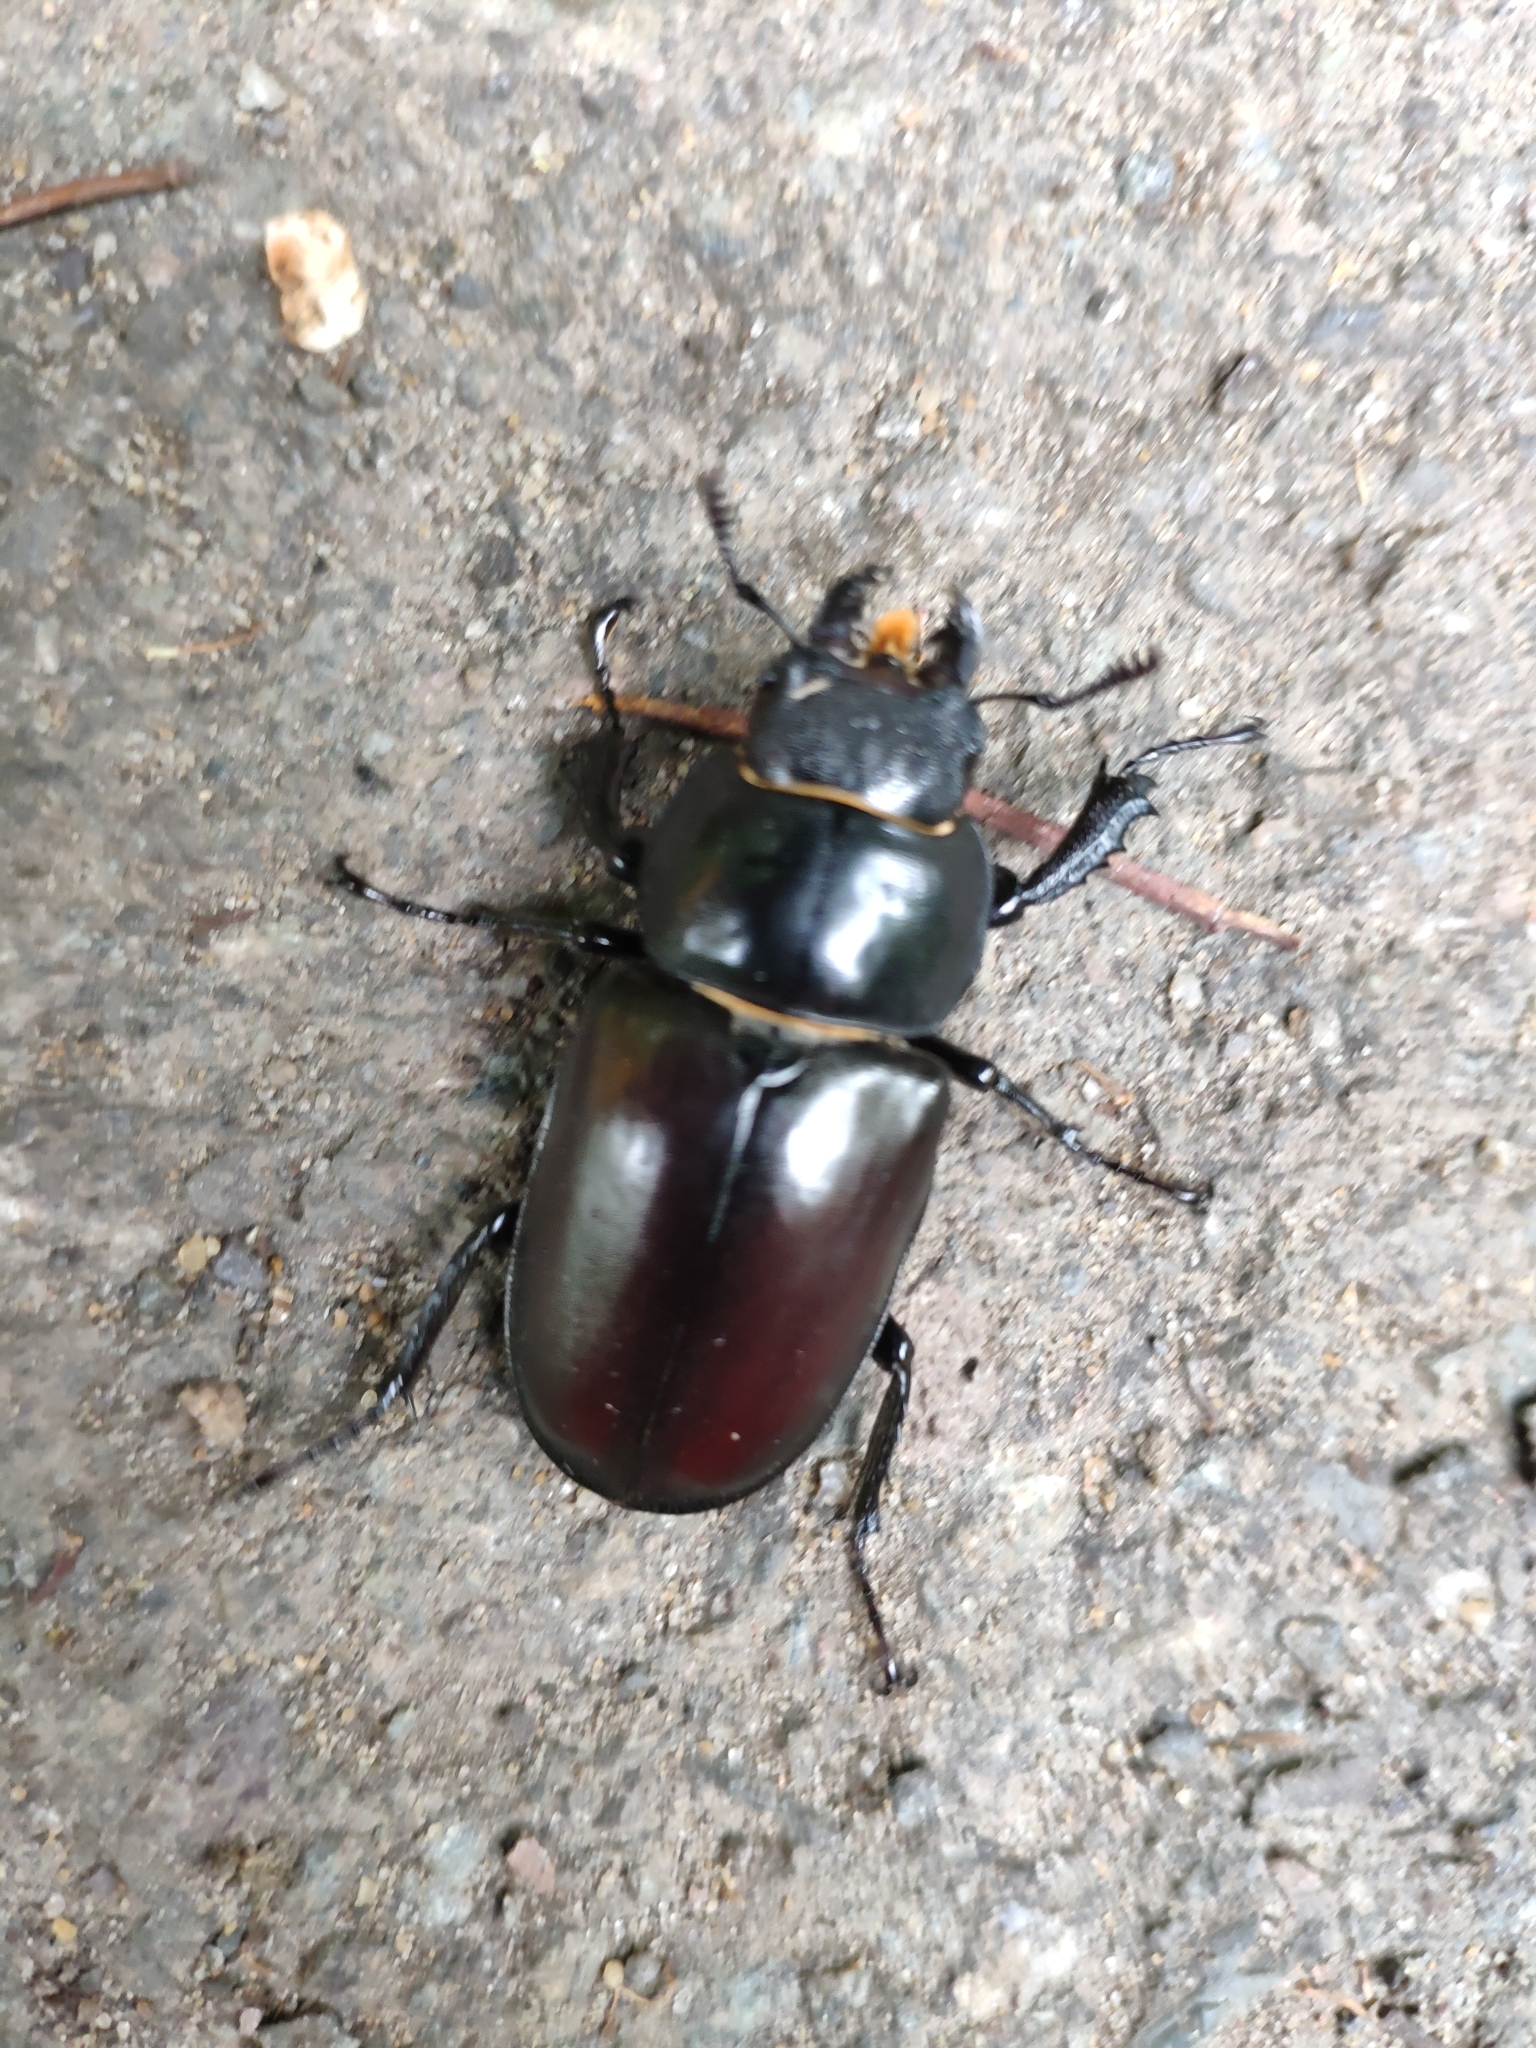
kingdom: Animalia
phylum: Arthropoda
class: Insecta
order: Coleoptera
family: Lucanidae
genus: Lucanus
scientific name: Lucanus cervus
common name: Stag beetle
